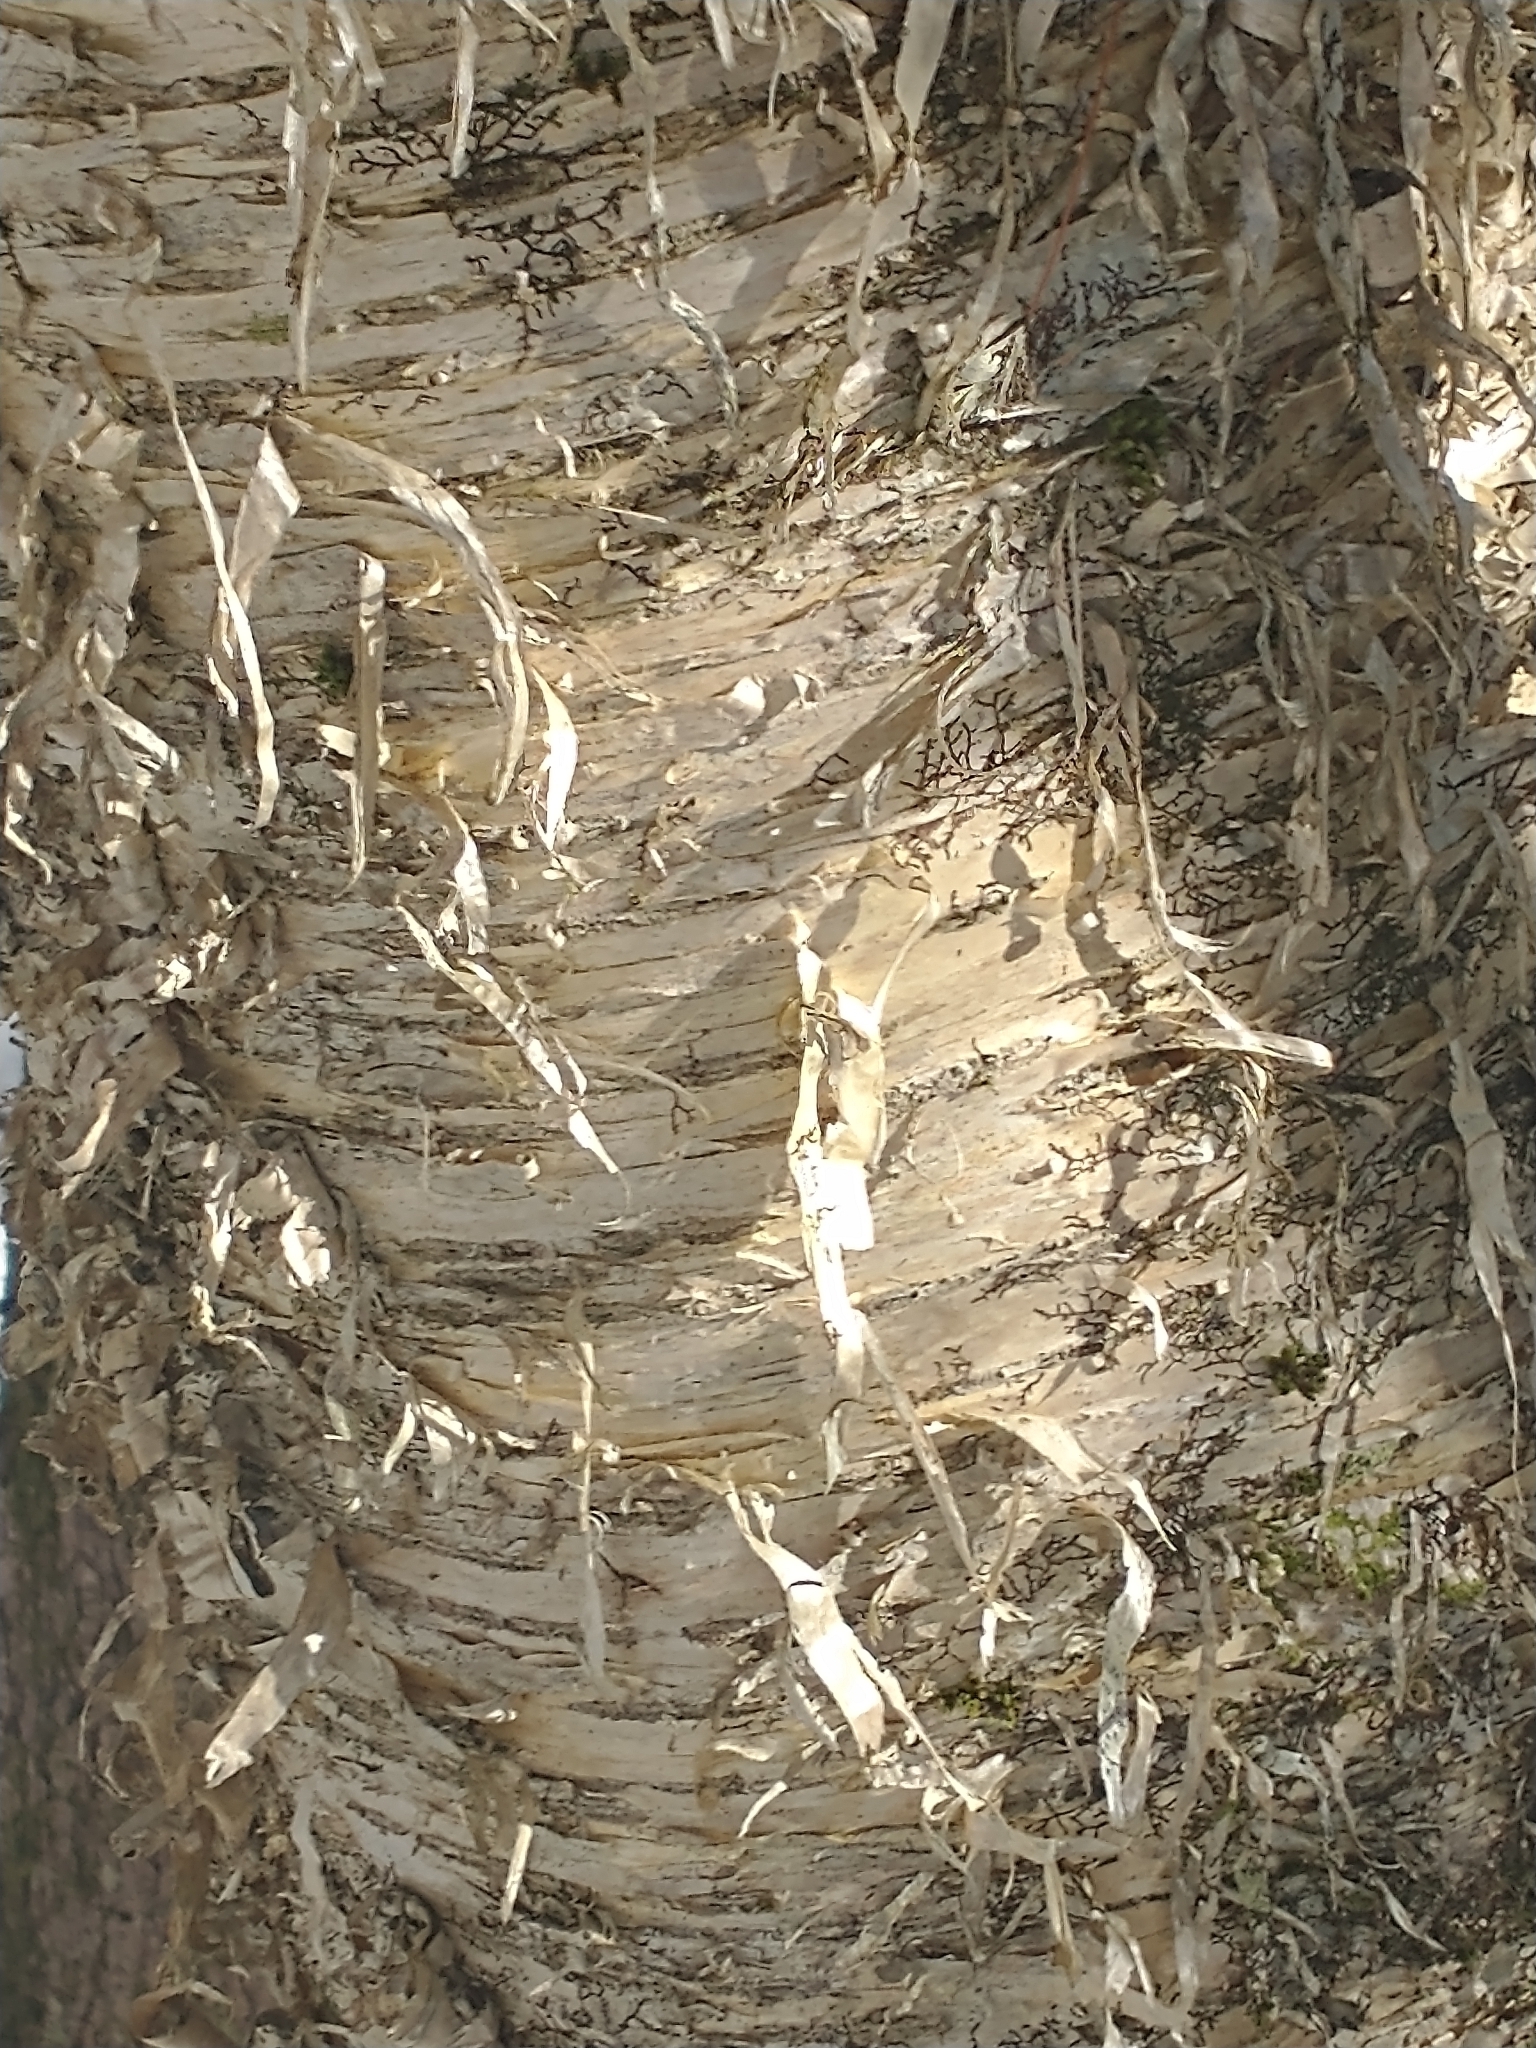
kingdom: Plantae
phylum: Tracheophyta
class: Magnoliopsida
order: Fagales
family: Betulaceae
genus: Betula
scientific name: Betula alleghaniensis
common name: Yellow birch
